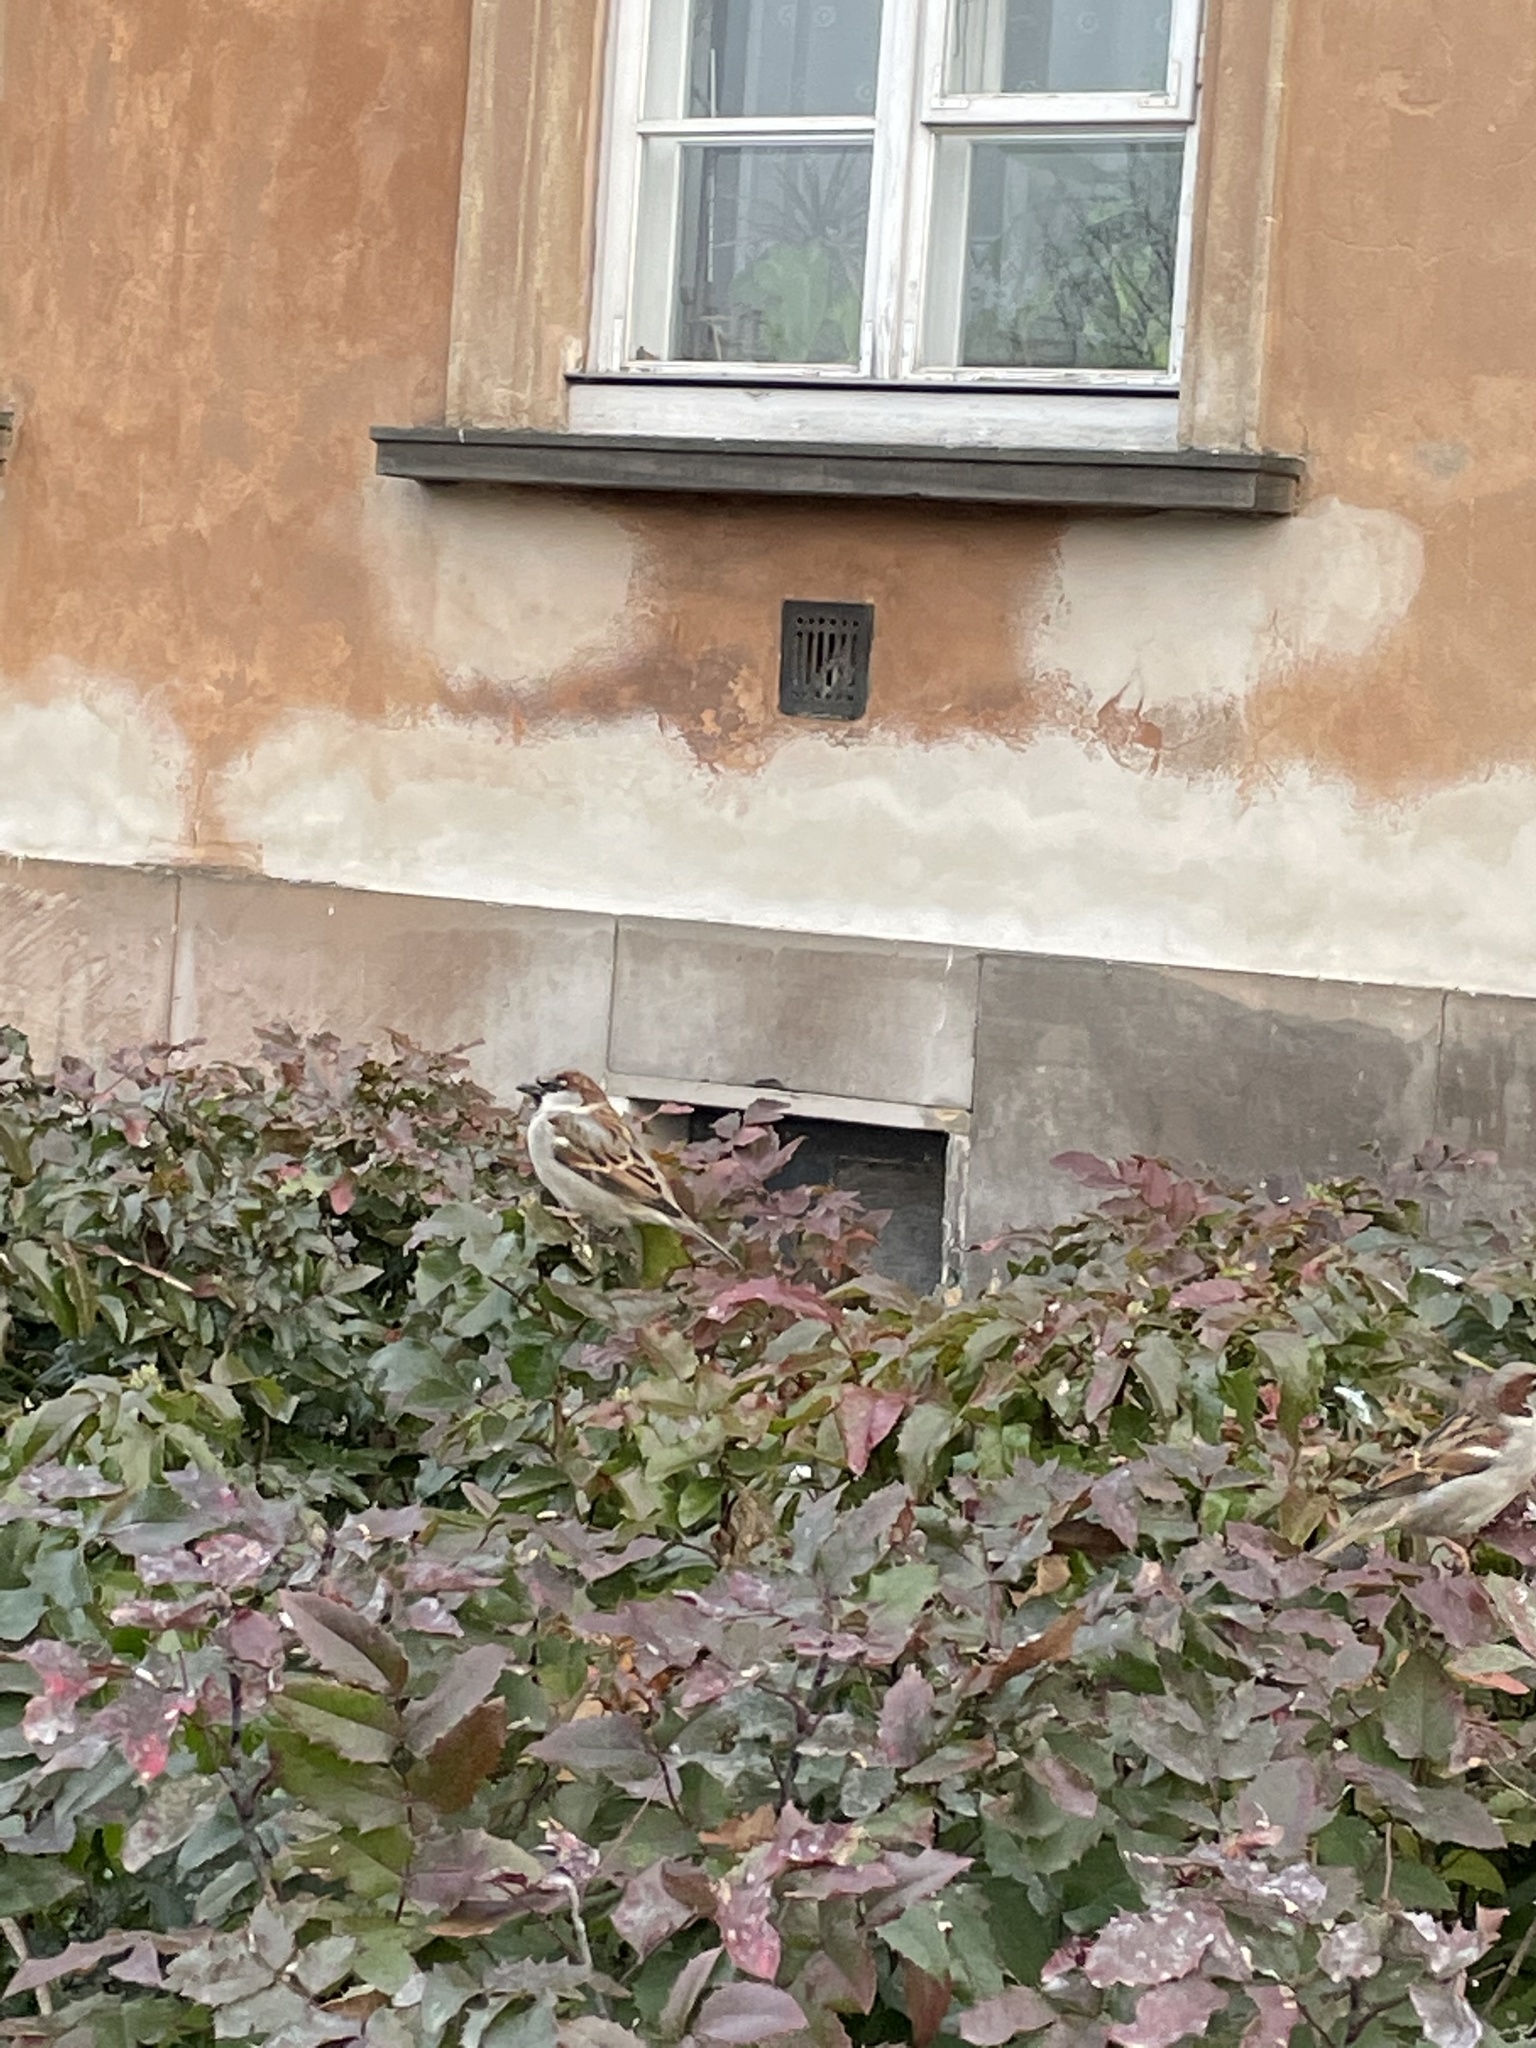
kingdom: Animalia
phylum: Chordata
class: Aves
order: Passeriformes
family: Passeridae
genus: Passer
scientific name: Passer domesticus
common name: House sparrow
